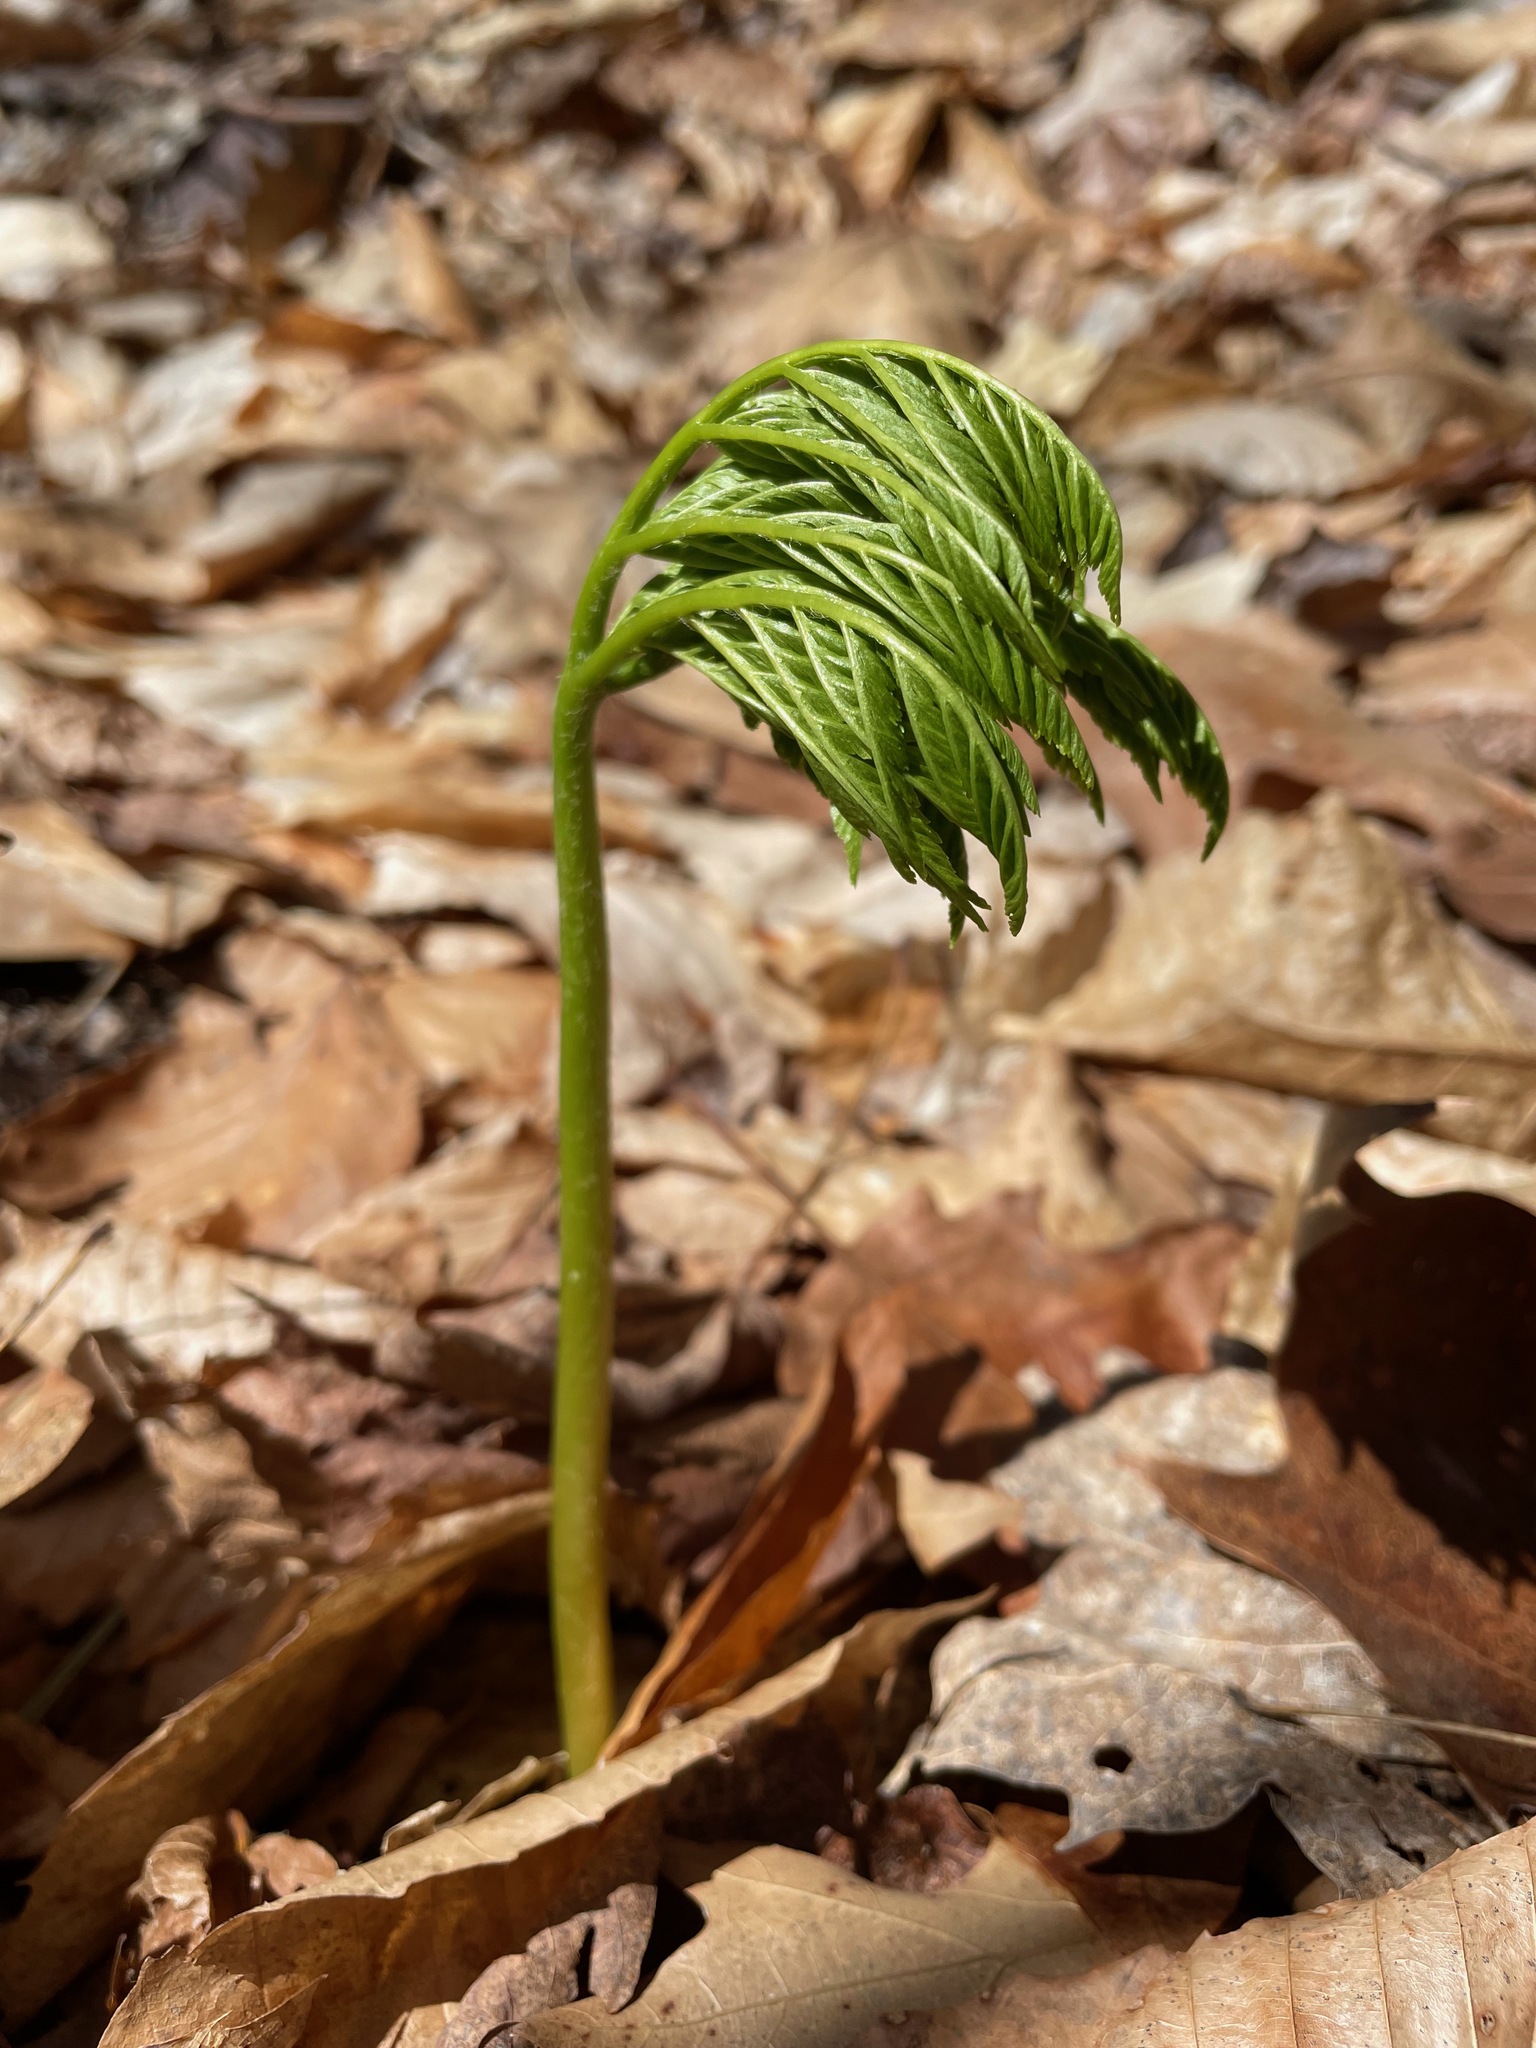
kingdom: Plantae
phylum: Tracheophyta
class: Polypodiopsida
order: Ophioglossales
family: Ophioglossaceae
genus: Botrypus
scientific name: Botrypus virginianus
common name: Common grapefern
